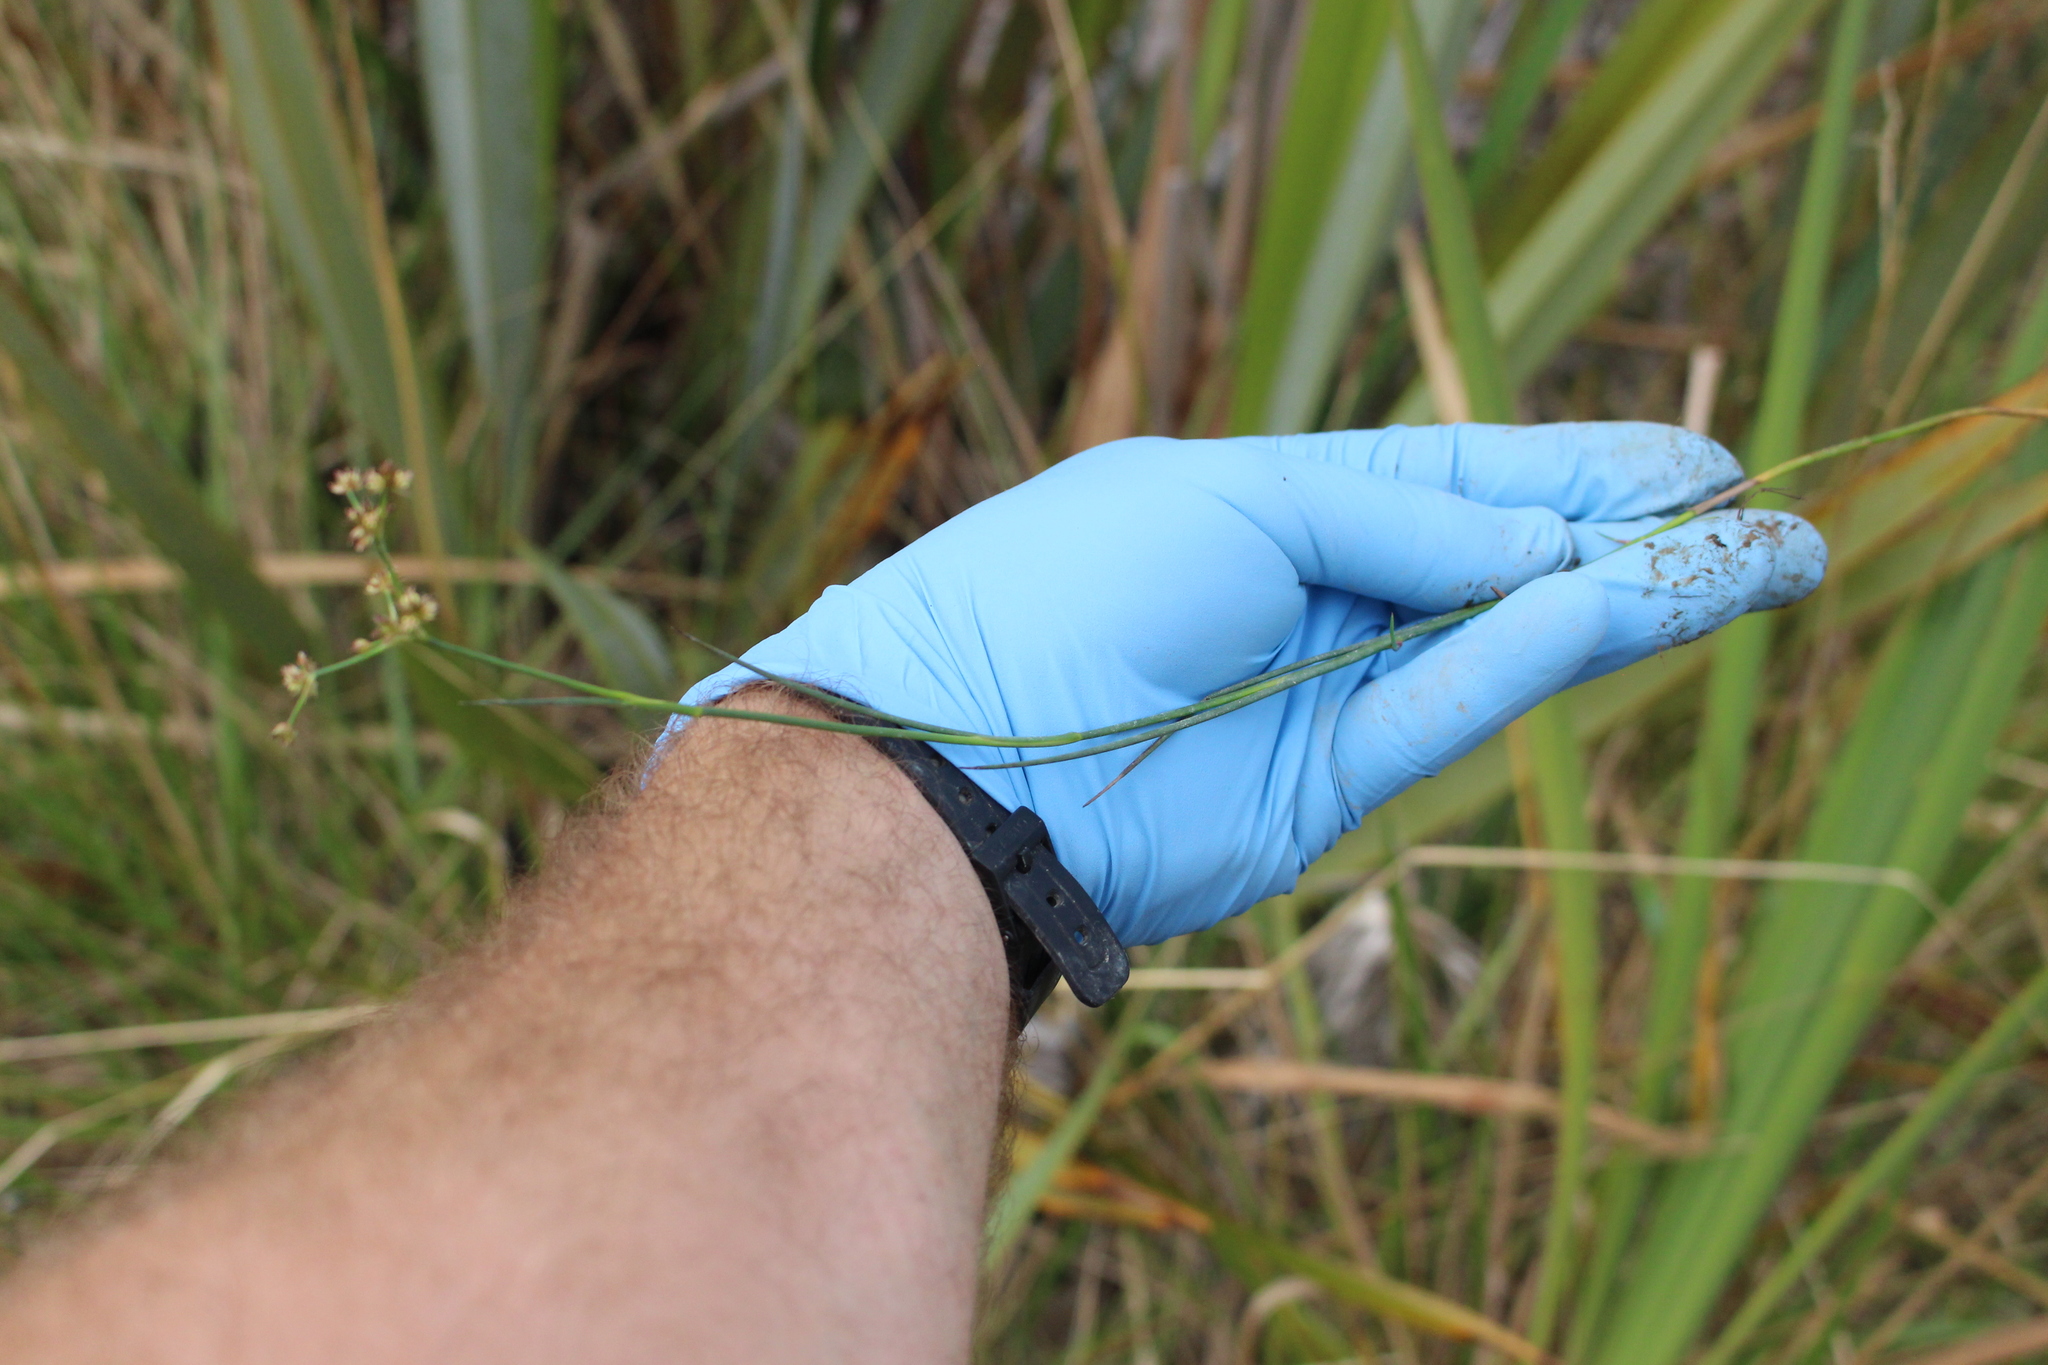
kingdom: Plantae
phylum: Tracheophyta
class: Liliopsida
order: Poales
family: Juncaceae
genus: Juncus
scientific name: Juncus articulatus
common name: Jointed rush
